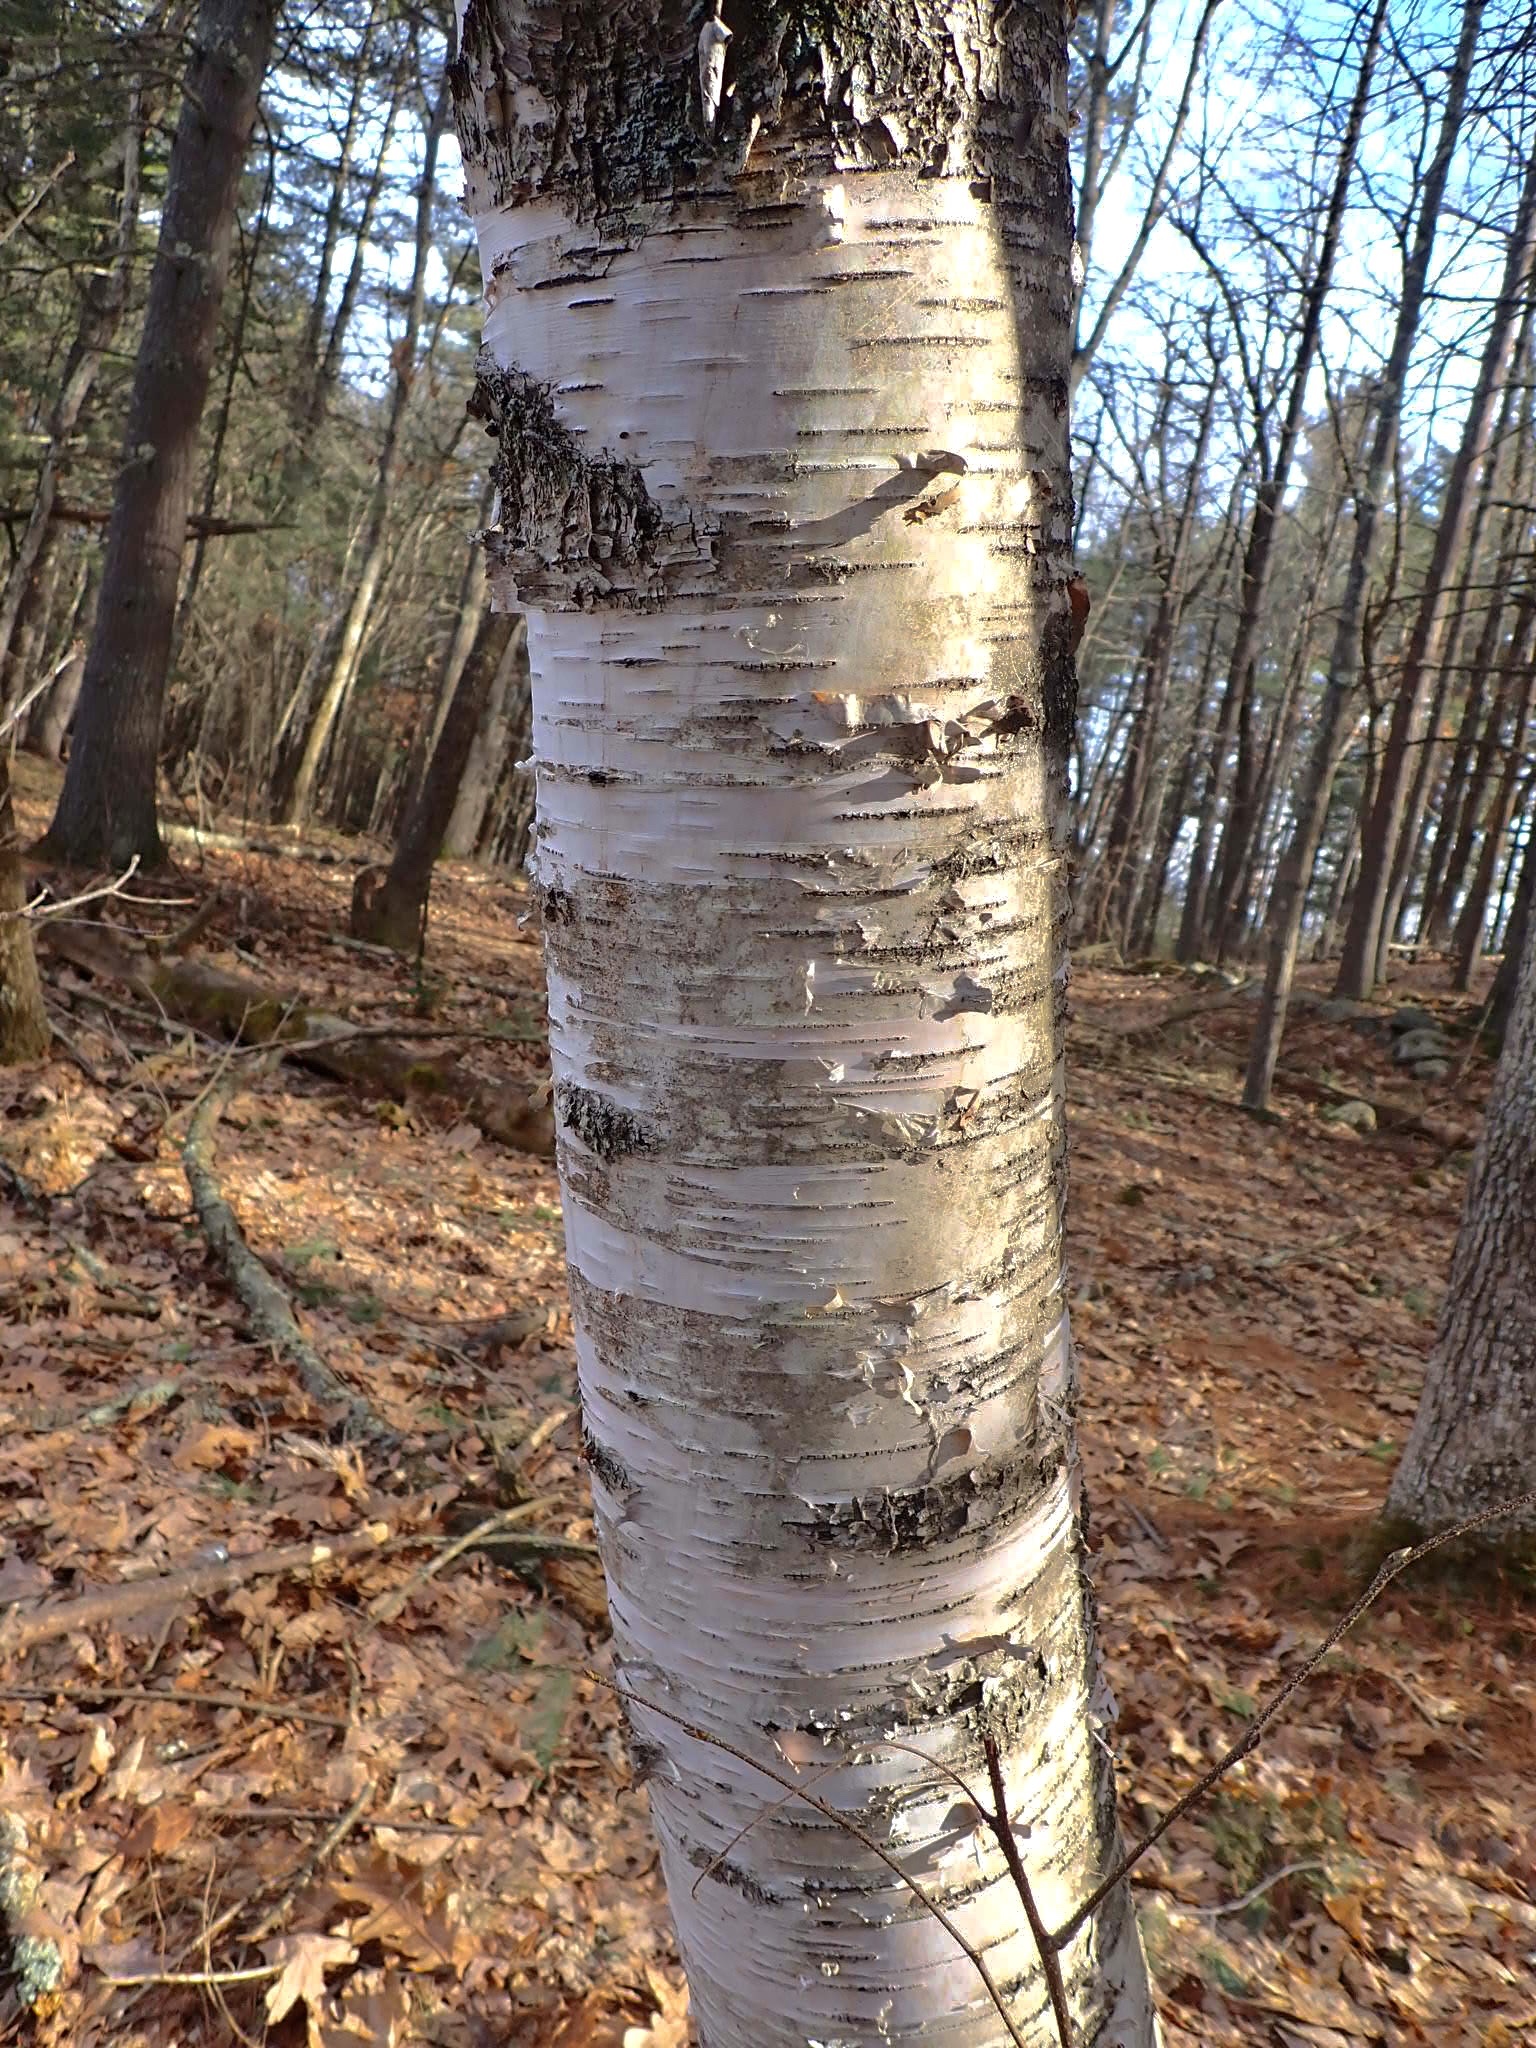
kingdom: Plantae
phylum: Tracheophyta
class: Magnoliopsida
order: Fagales
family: Betulaceae
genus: Betula
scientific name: Betula papyrifera
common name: Paper birch
